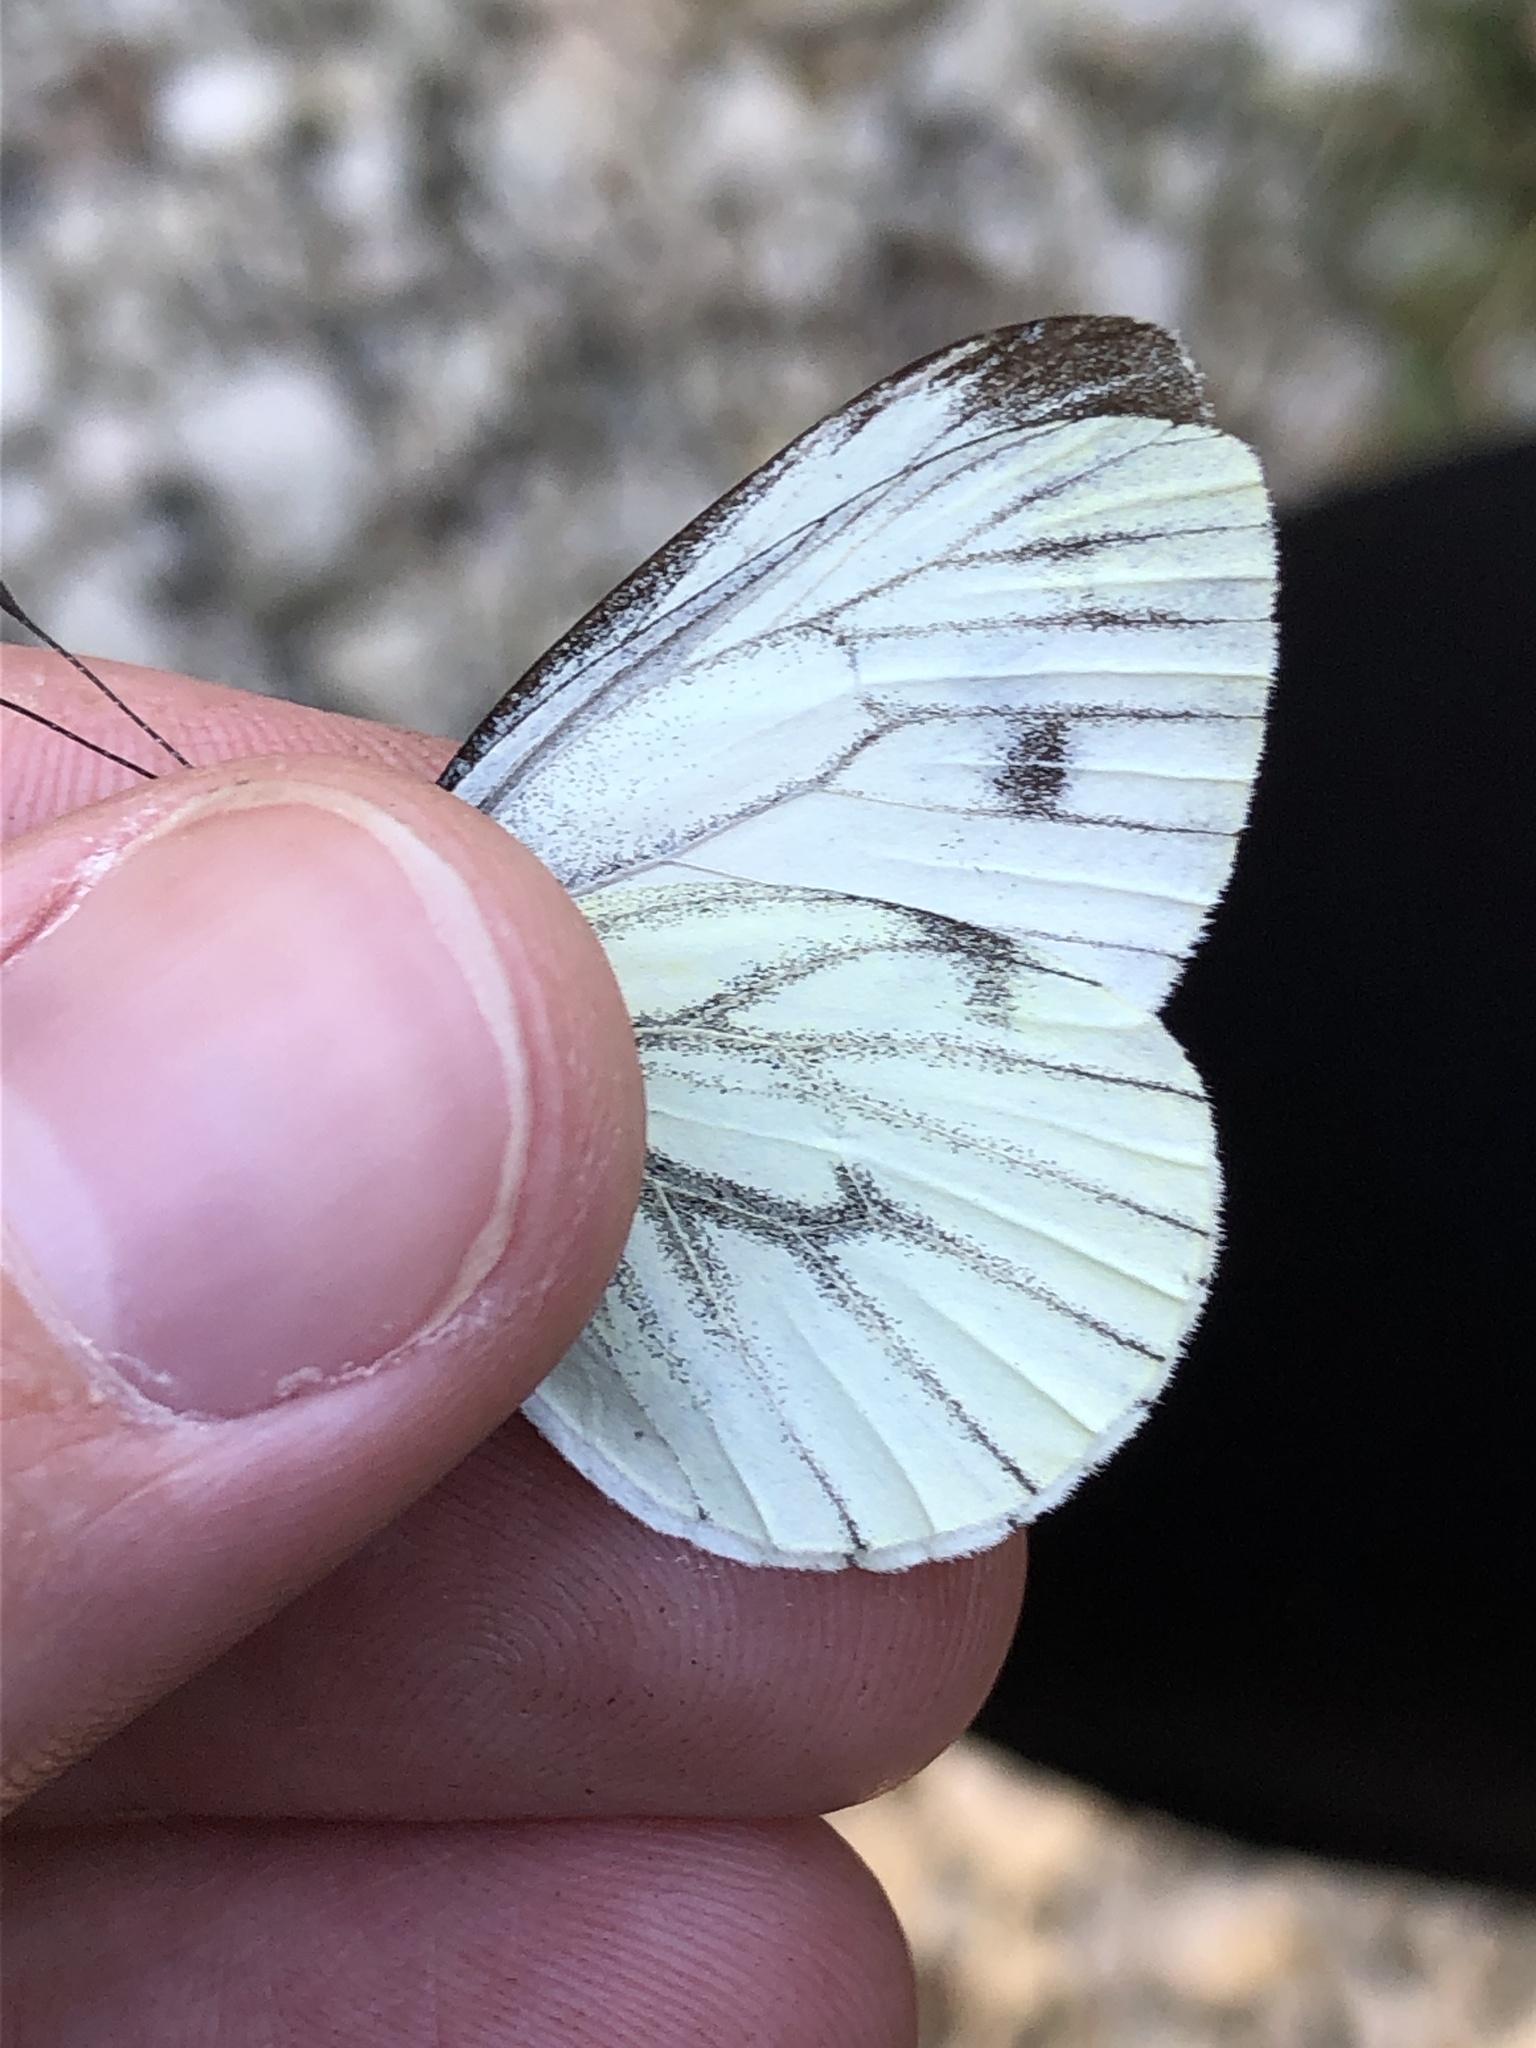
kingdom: Animalia
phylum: Arthropoda
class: Insecta
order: Lepidoptera
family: Pieridae
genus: Pieris
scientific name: Pieris napi
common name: Green-veined white
